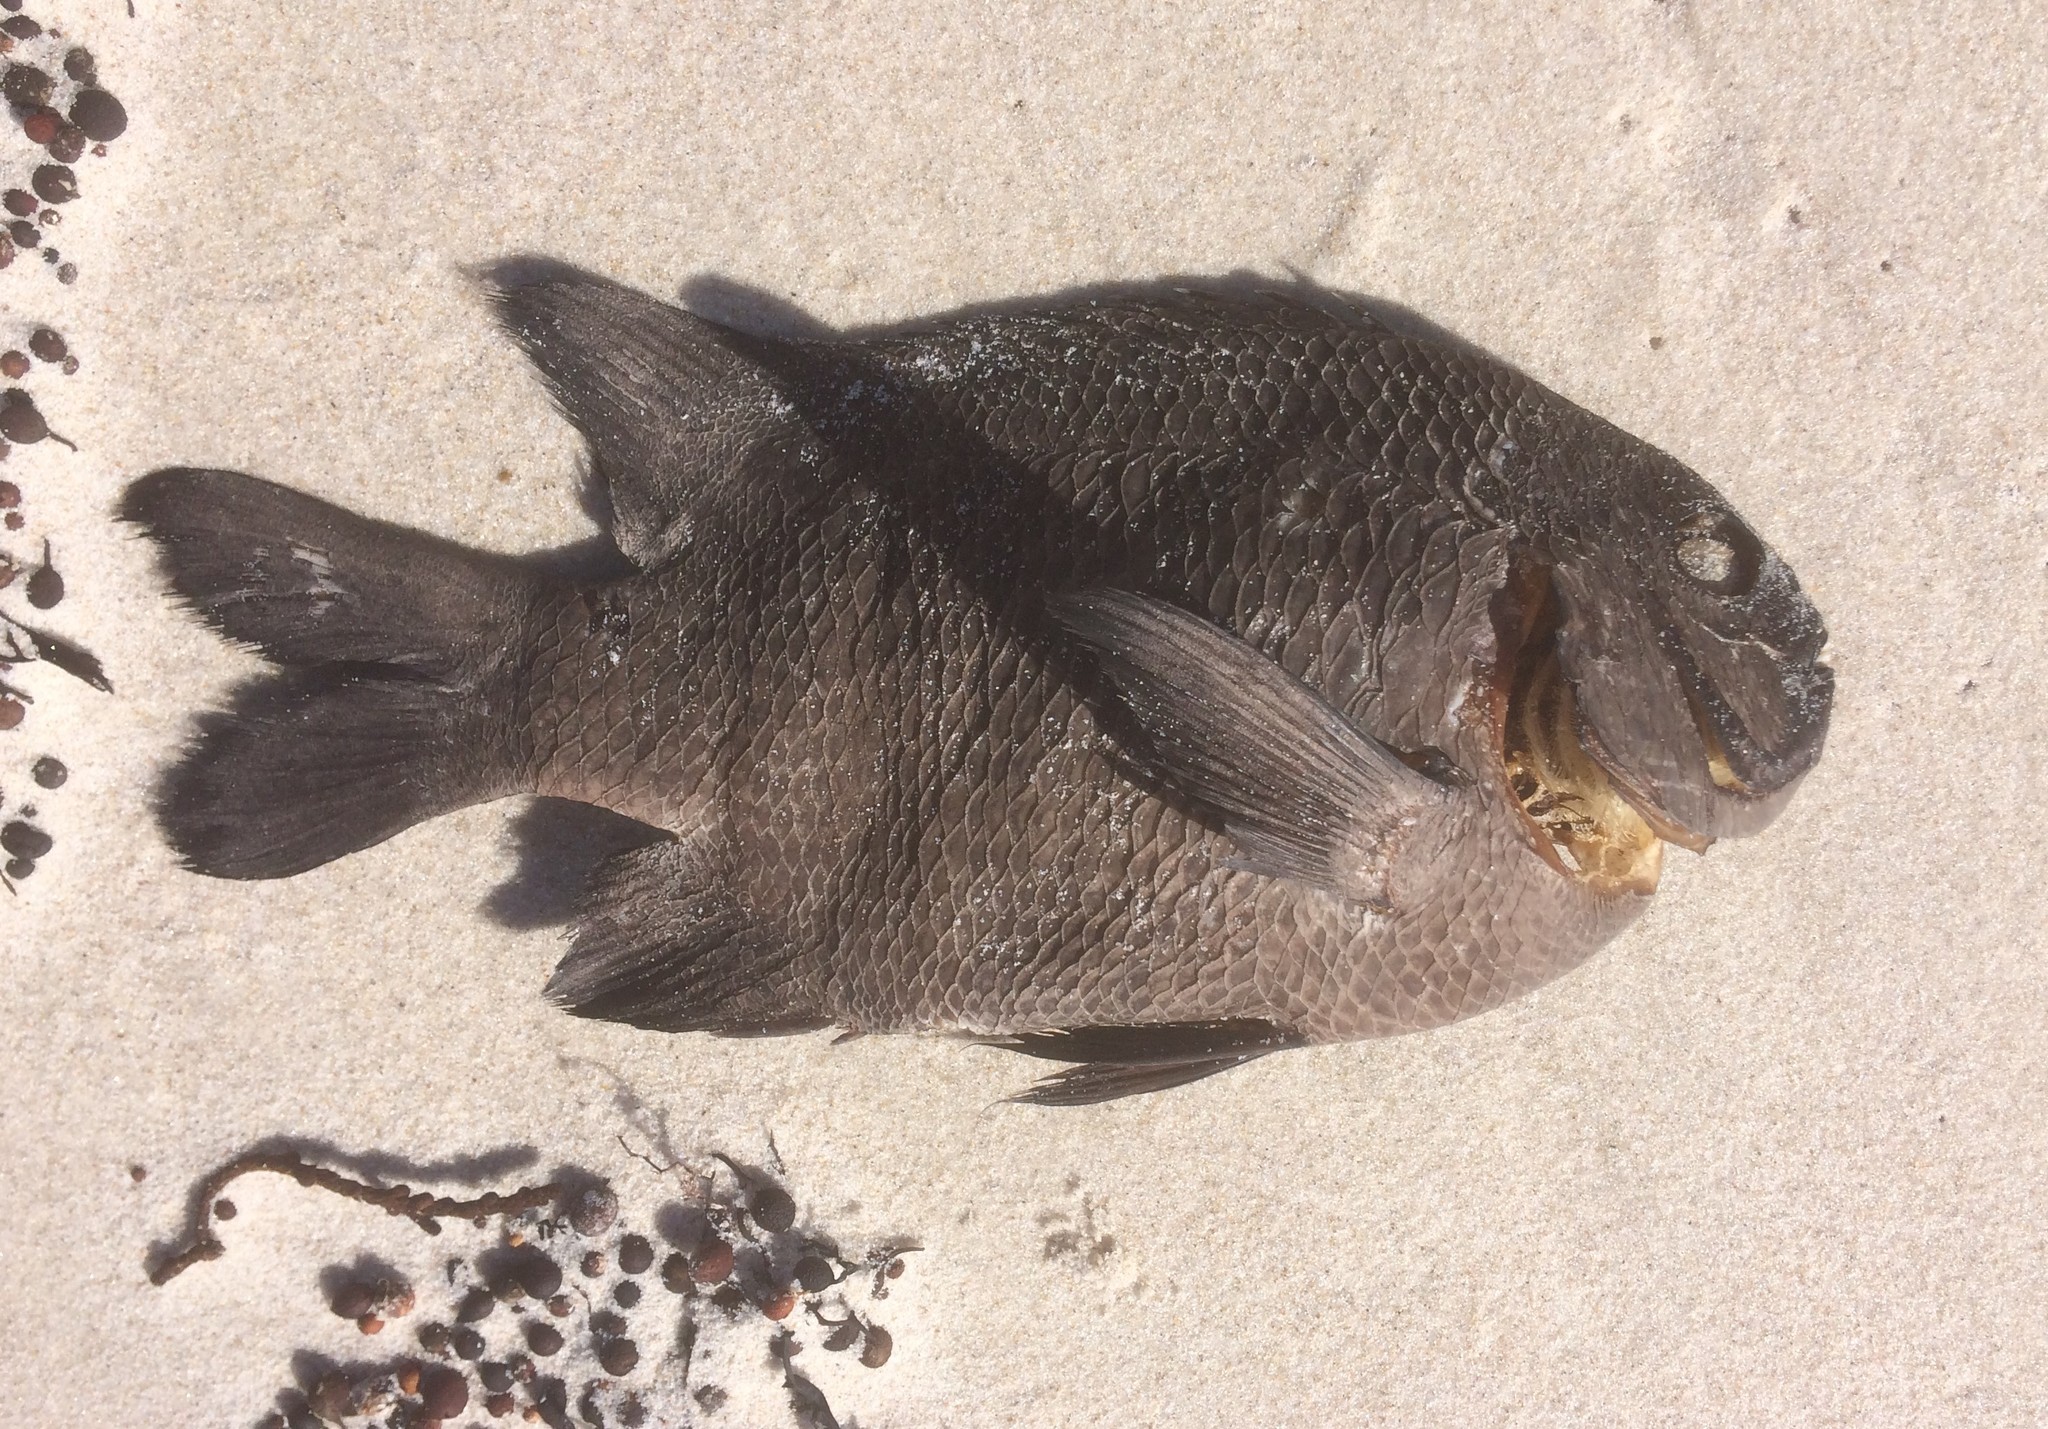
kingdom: Animalia
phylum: Chordata
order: Perciformes
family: Pomacentridae
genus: Parma
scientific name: Parma mccullochi
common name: Common scalyfin
